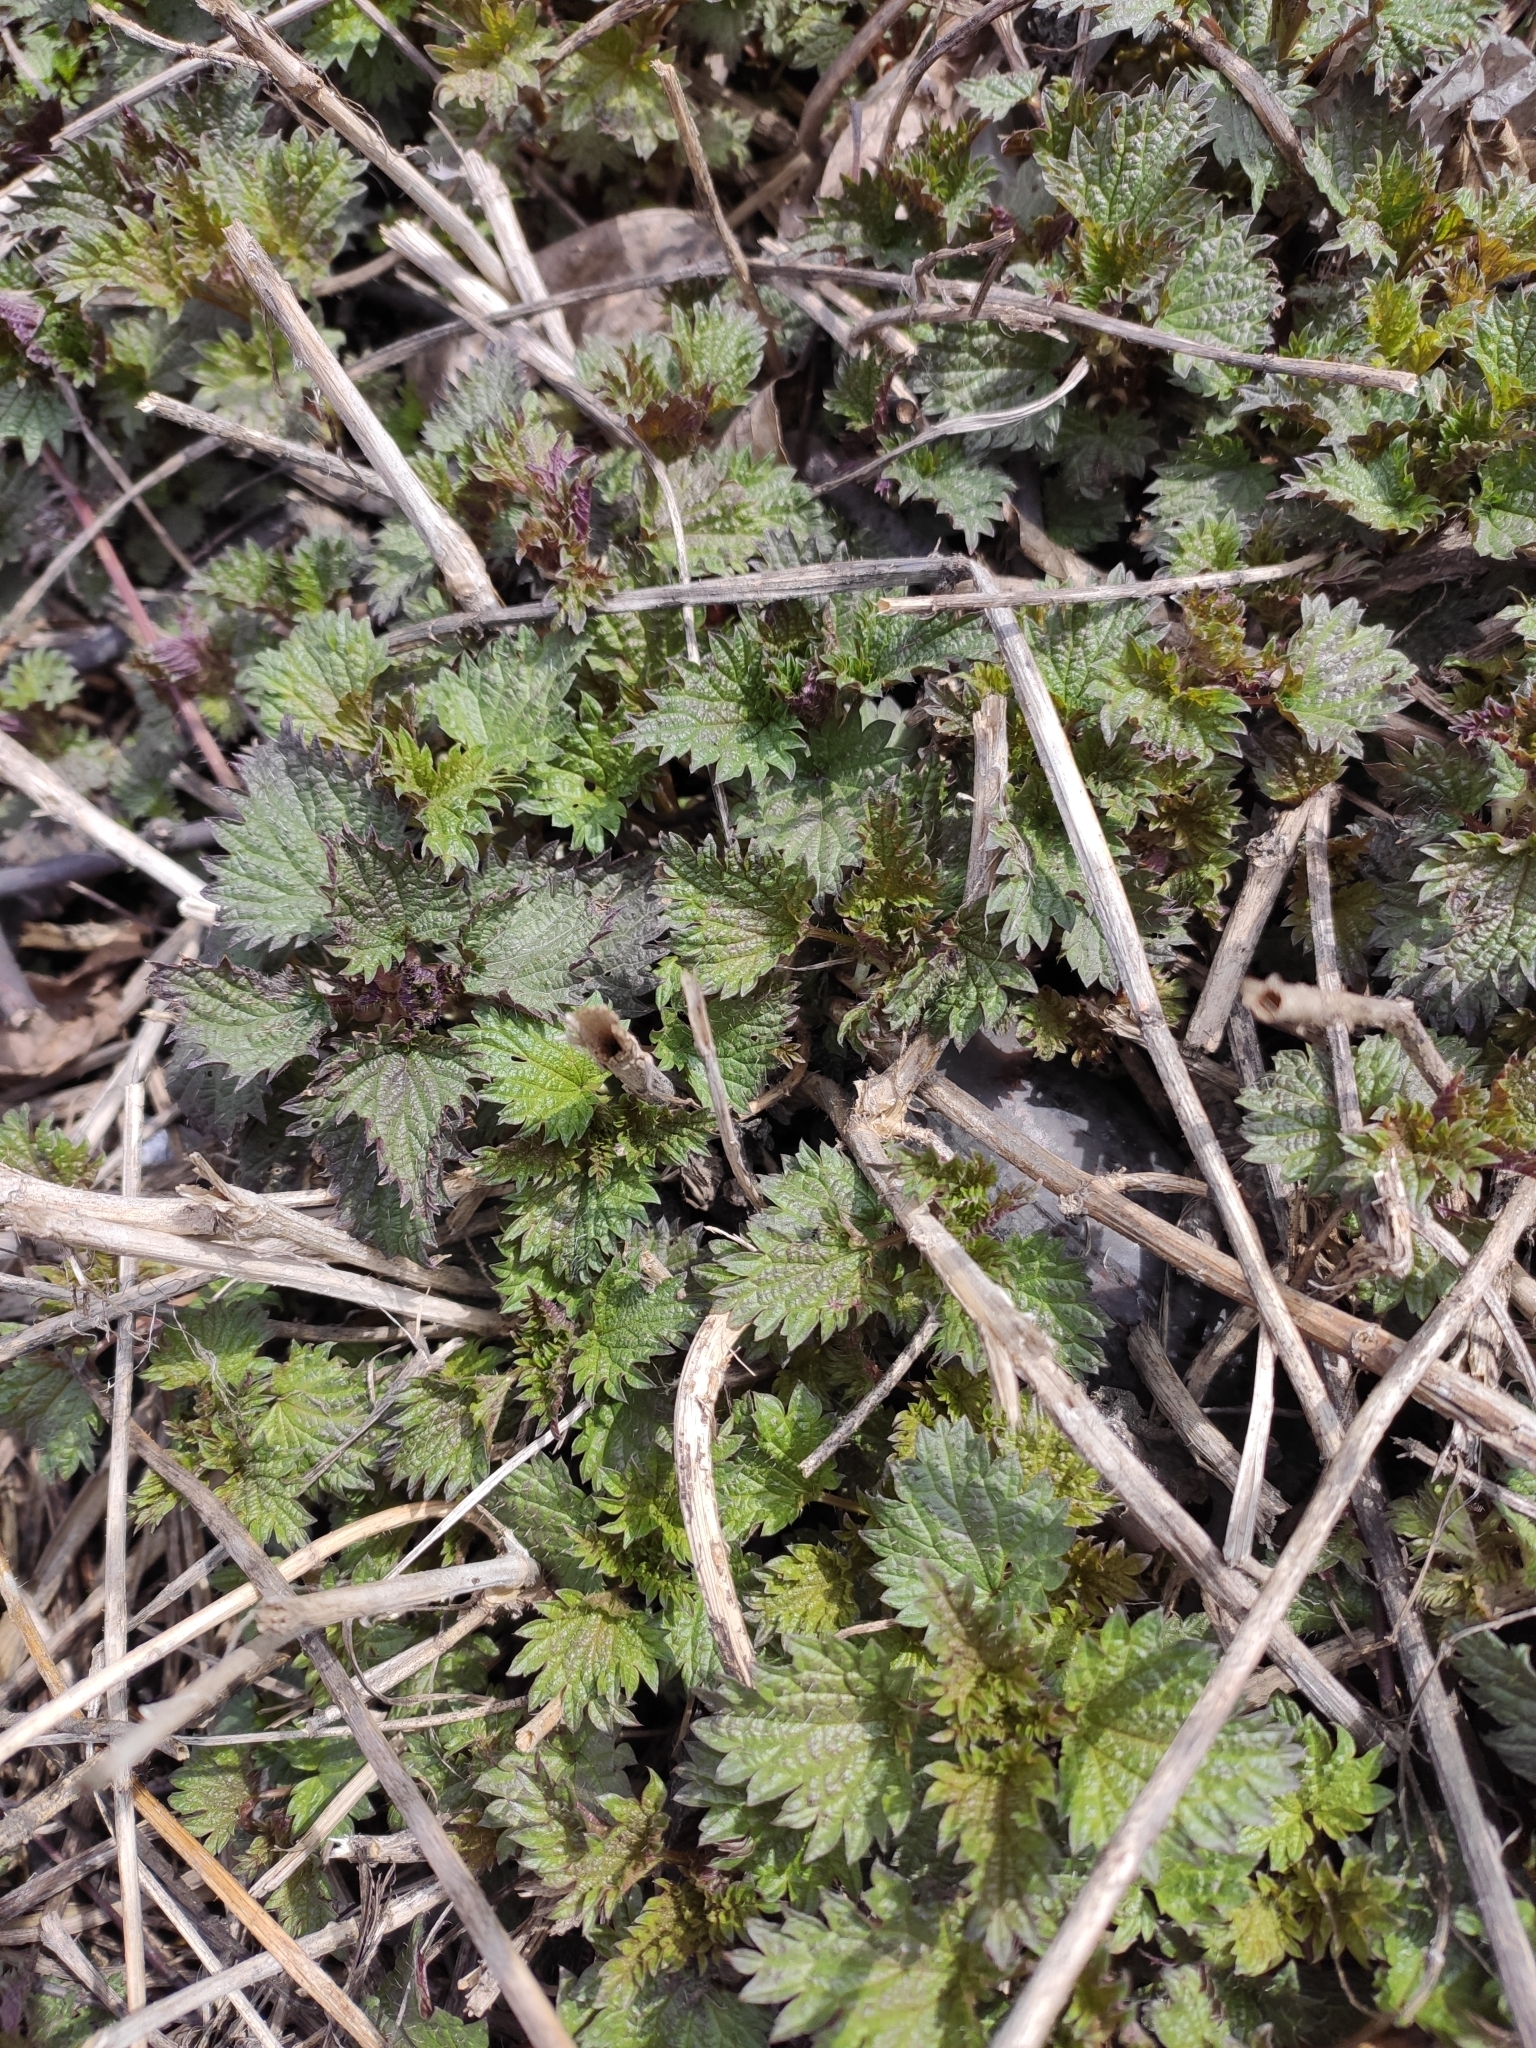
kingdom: Plantae
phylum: Tracheophyta
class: Magnoliopsida
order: Rosales
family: Urticaceae
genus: Urtica
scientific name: Urtica dioica
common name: Common nettle
